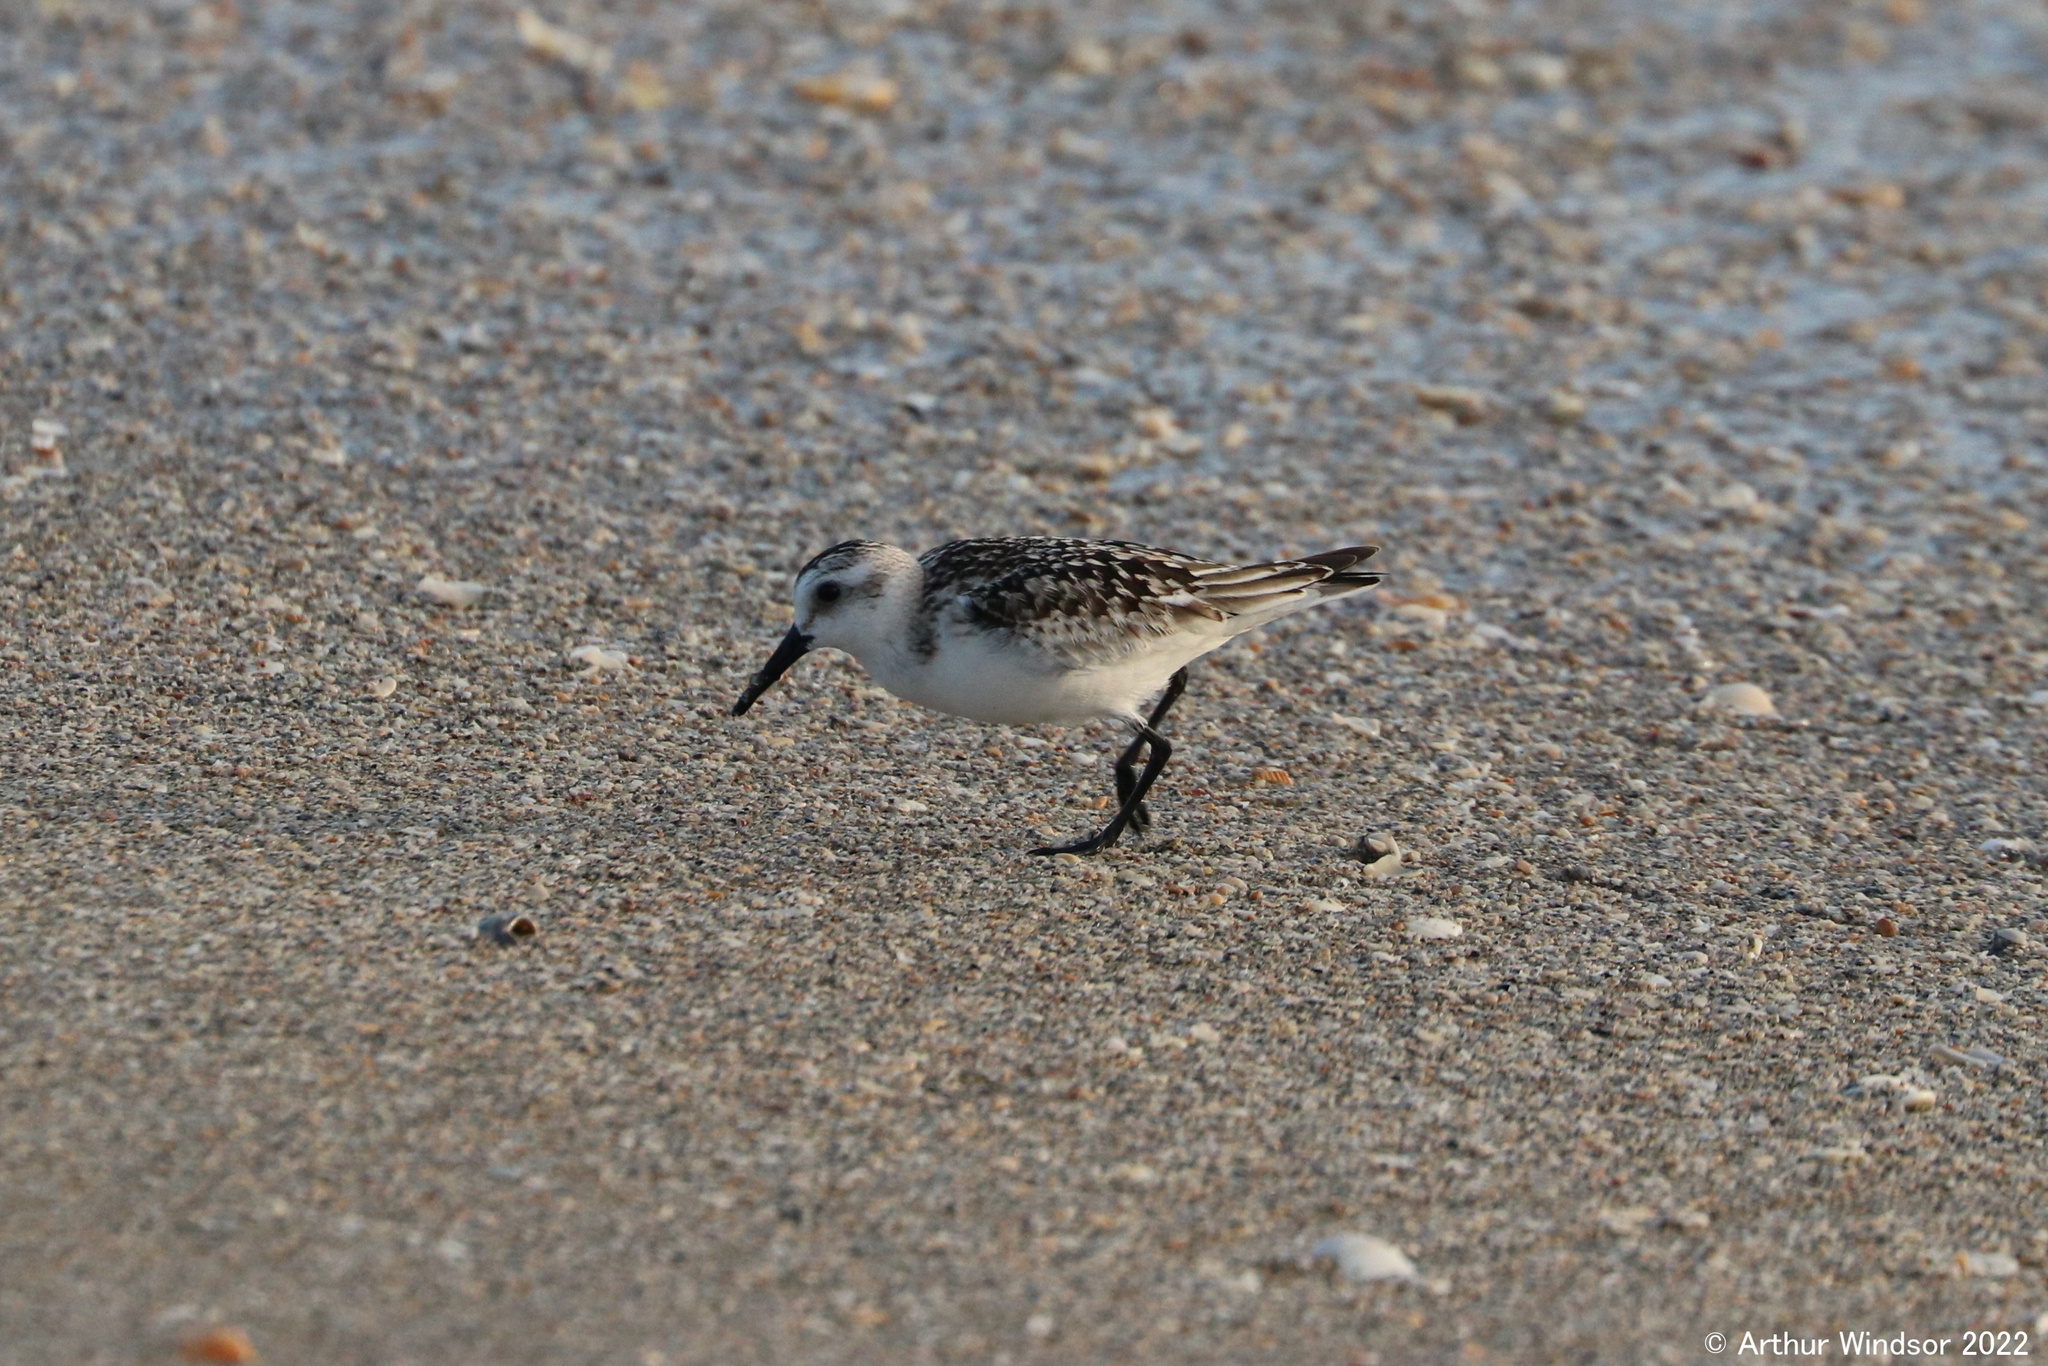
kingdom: Animalia
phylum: Chordata
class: Aves
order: Charadriiformes
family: Scolopacidae
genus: Calidris
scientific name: Calidris alba
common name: Sanderling
